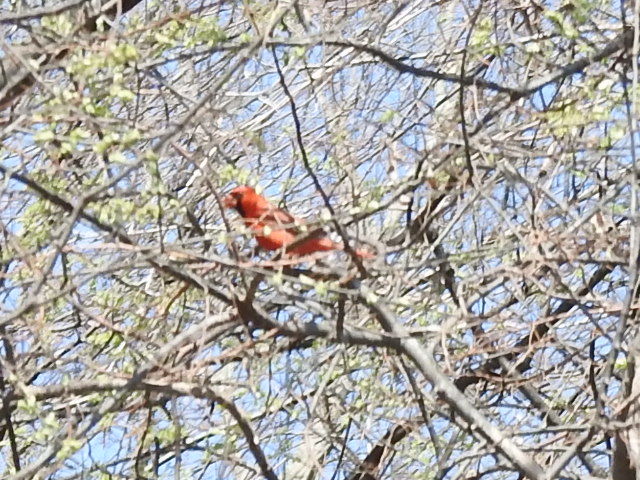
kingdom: Animalia
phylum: Chordata
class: Aves
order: Passeriformes
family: Cardinalidae
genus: Cardinalis
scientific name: Cardinalis cardinalis
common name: Northern cardinal
